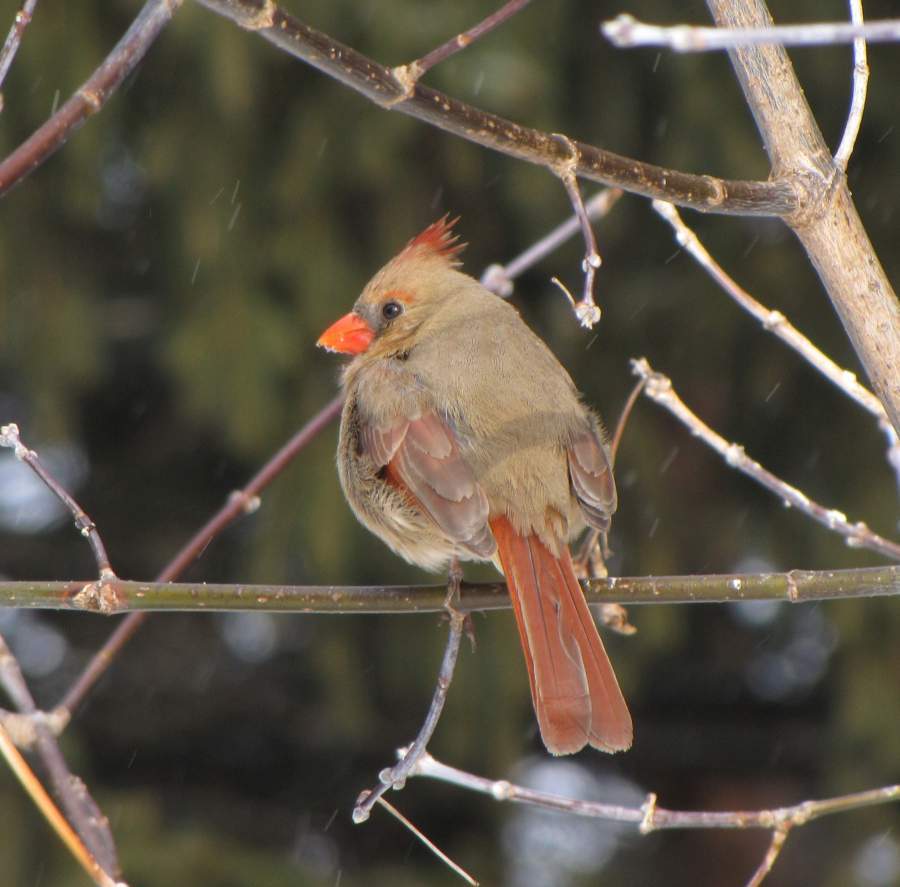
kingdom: Animalia
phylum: Chordata
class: Aves
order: Passeriformes
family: Cardinalidae
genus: Cardinalis
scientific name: Cardinalis cardinalis
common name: Northern cardinal
